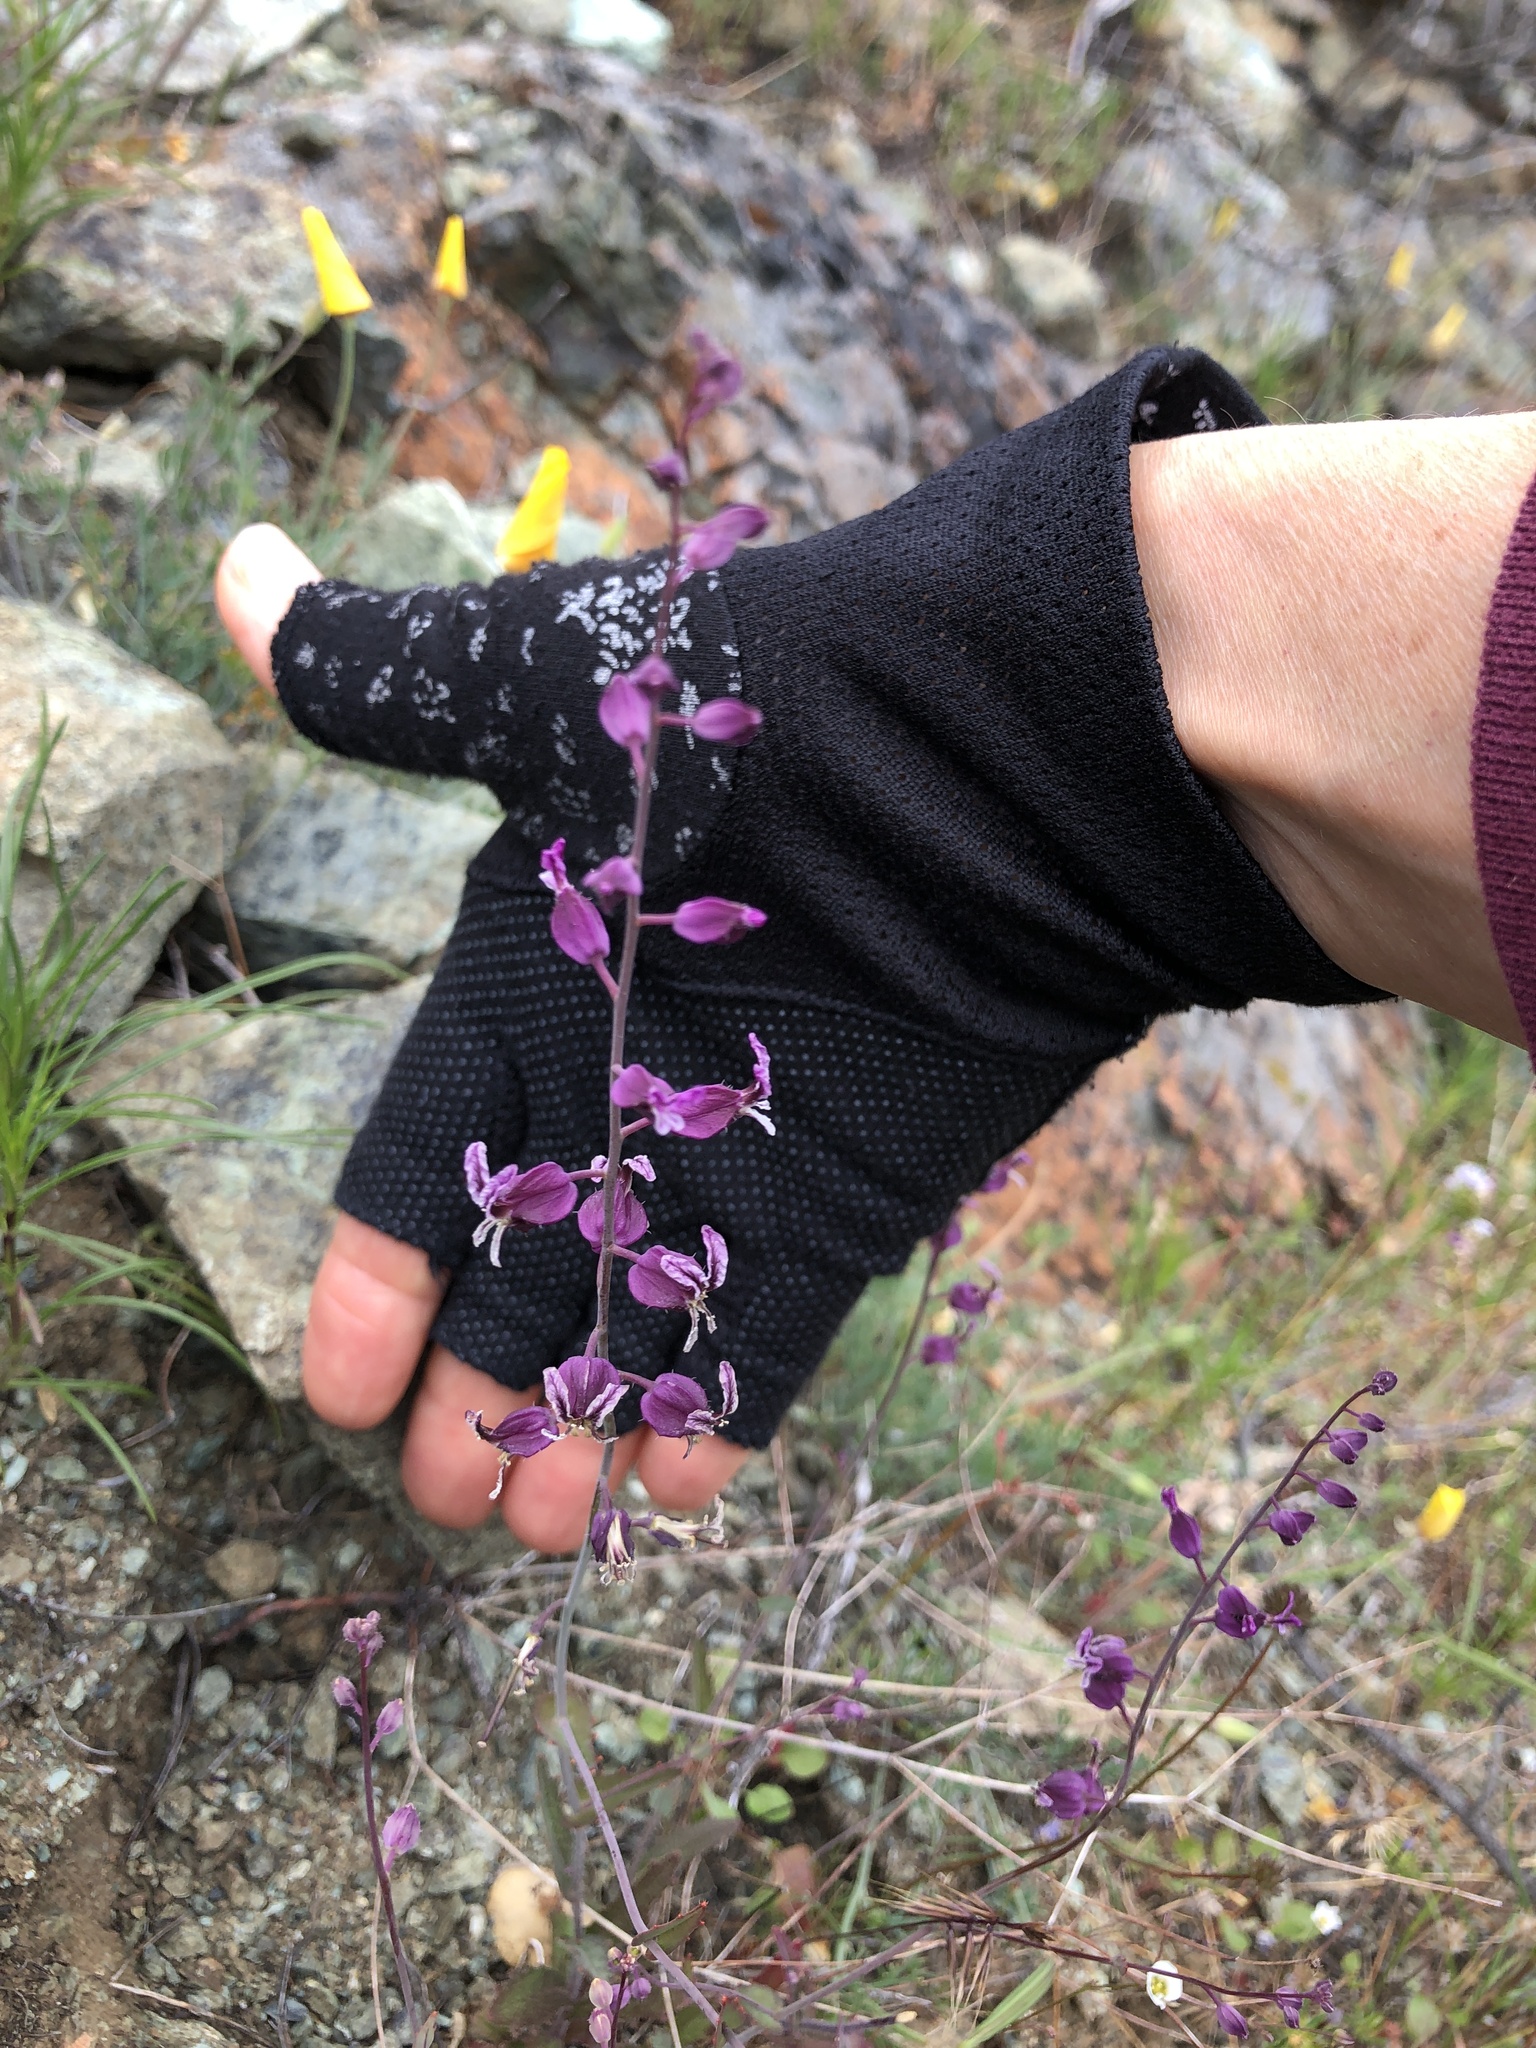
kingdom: Plantae
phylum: Tracheophyta
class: Magnoliopsida
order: Brassicales
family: Brassicaceae
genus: Streptanthus
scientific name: Streptanthus glandulosus
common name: Jewel-flower
